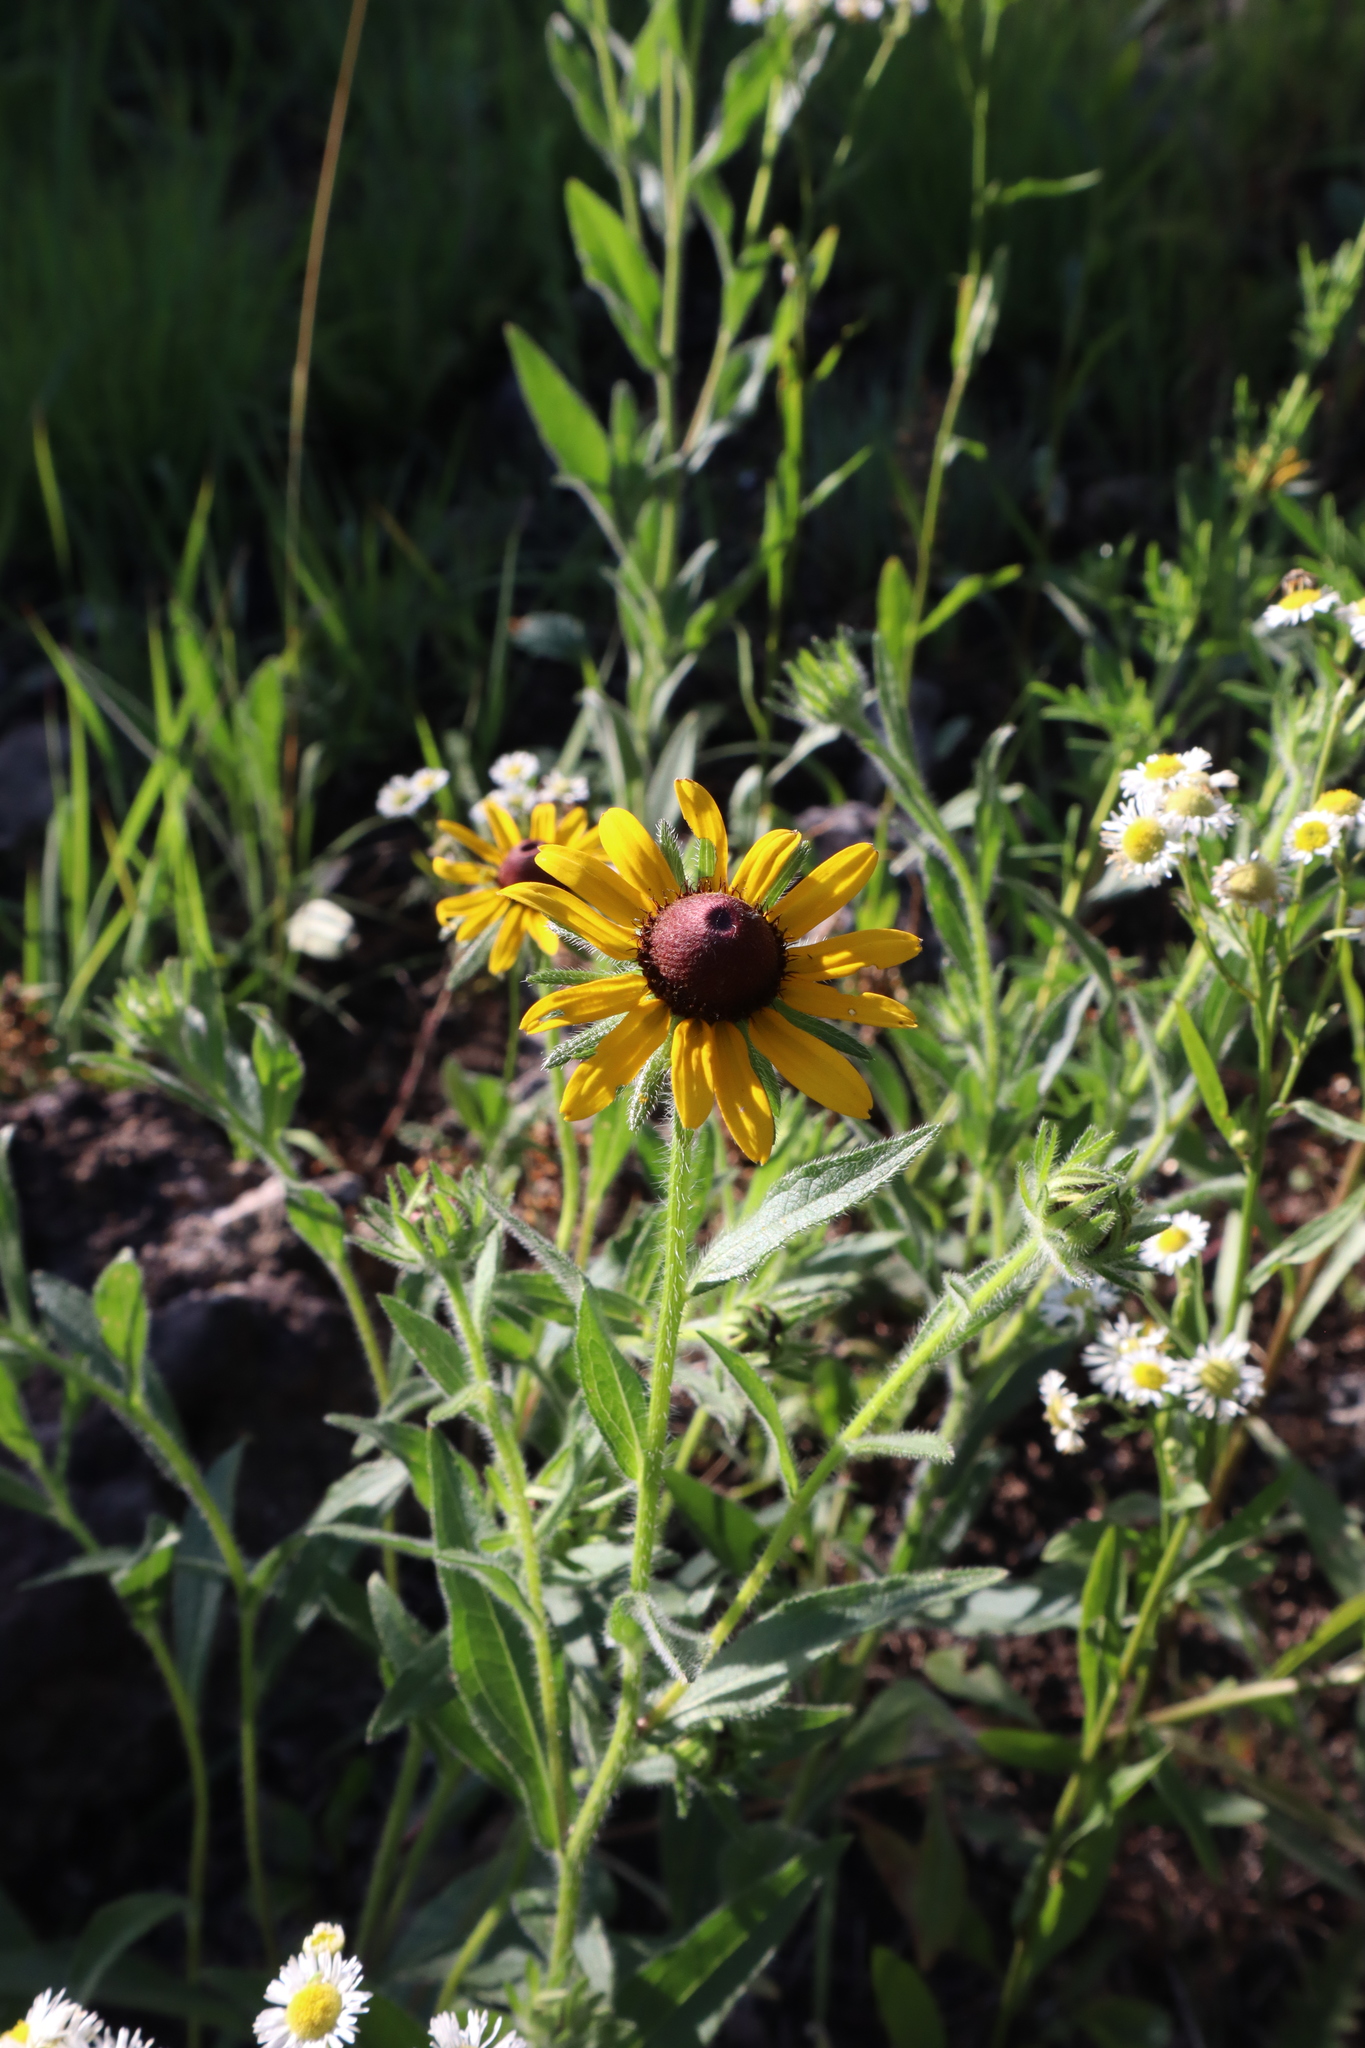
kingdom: Plantae
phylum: Tracheophyta
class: Magnoliopsida
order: Asterales
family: Asteraceae
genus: Rudbeckia
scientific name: Rudbeckia hirta
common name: Black-eyed-susan
